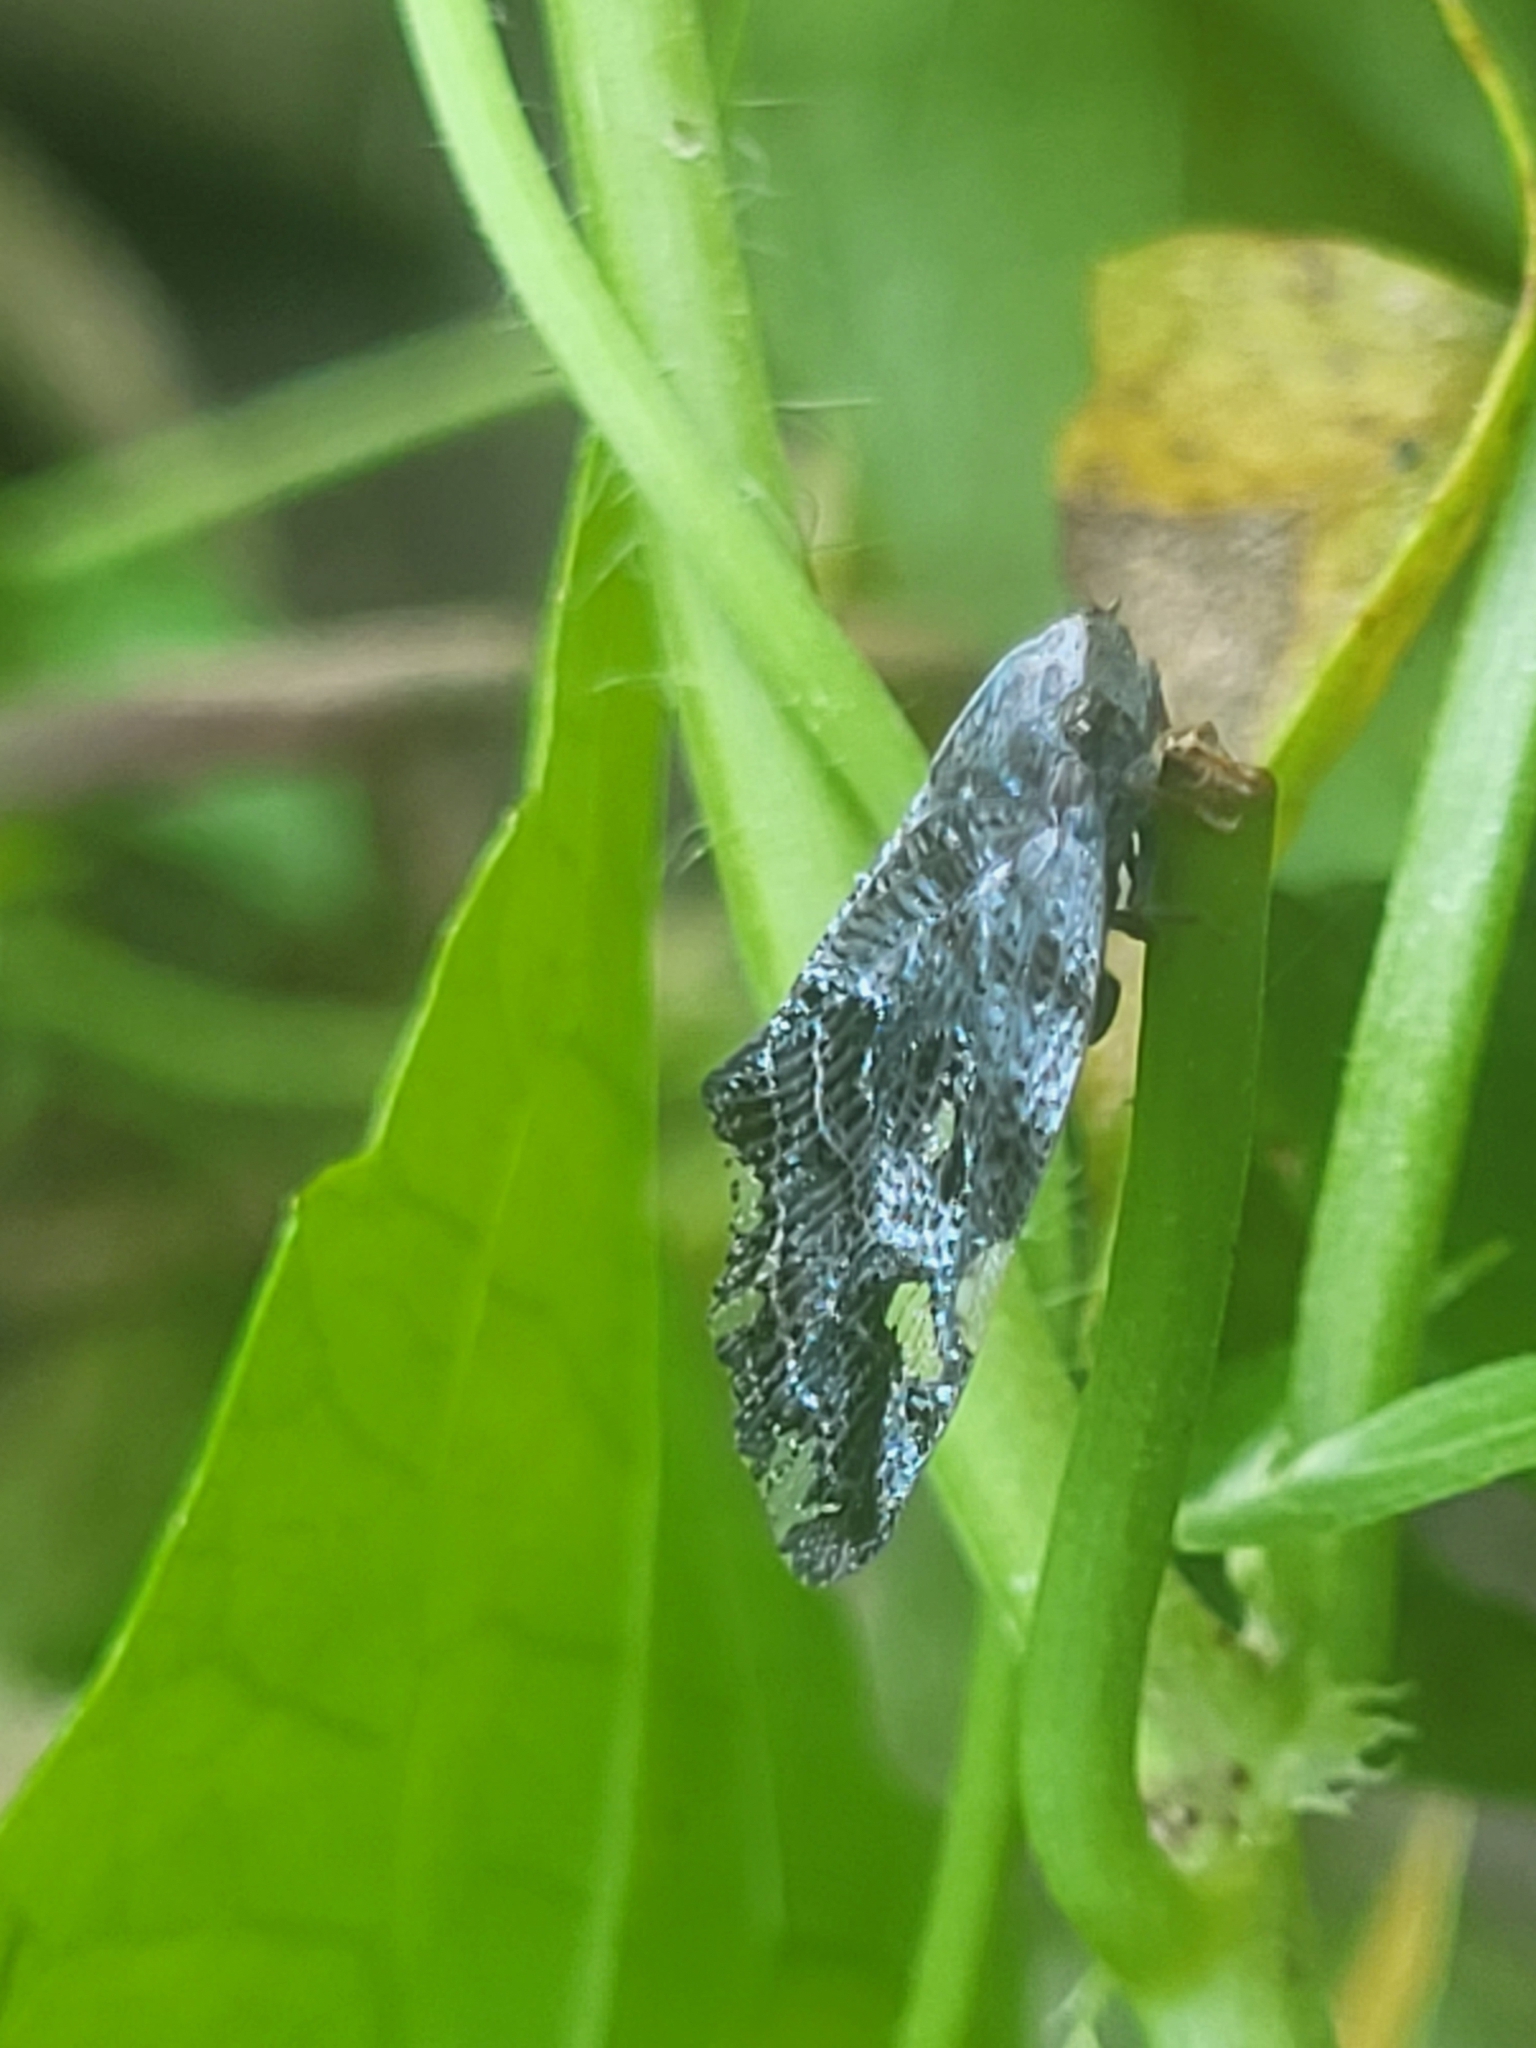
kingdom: Animalia
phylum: Arthropoda
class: Insecta
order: Hemiptera
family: Ricaniidae
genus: Ricania
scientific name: Ricania speculum
